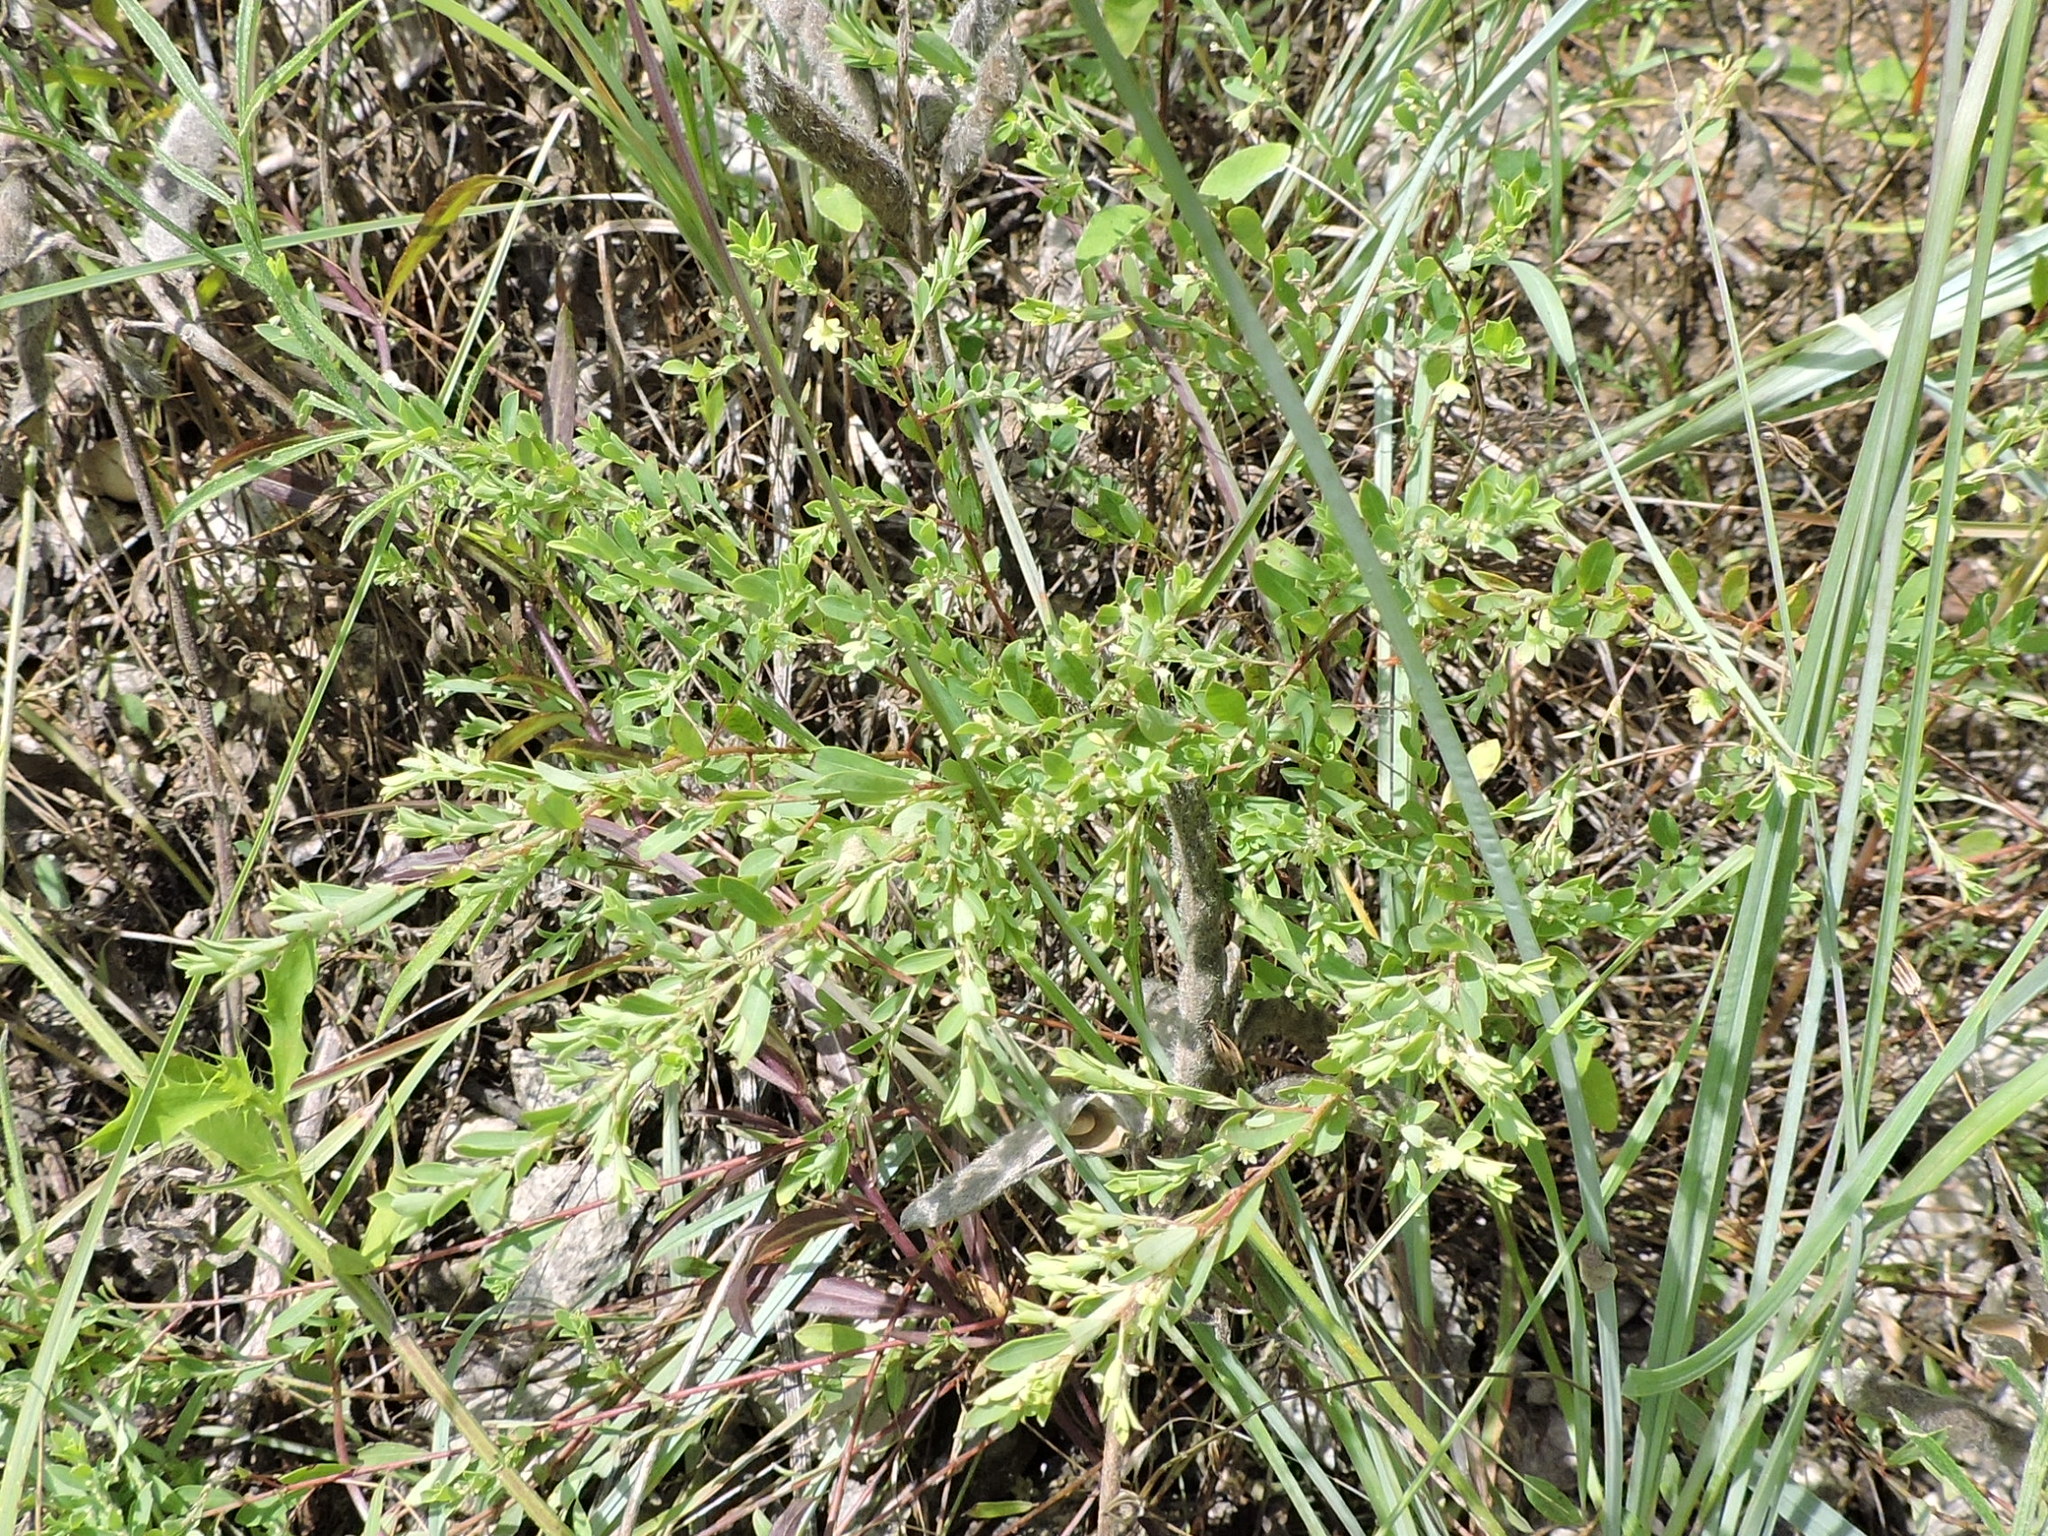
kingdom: Plantae
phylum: Tracheophyta
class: Magnoliopsida
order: Malpighiales
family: Phyllanthaceae
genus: Phyllanthus
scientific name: Phyllanthus polygonoides
